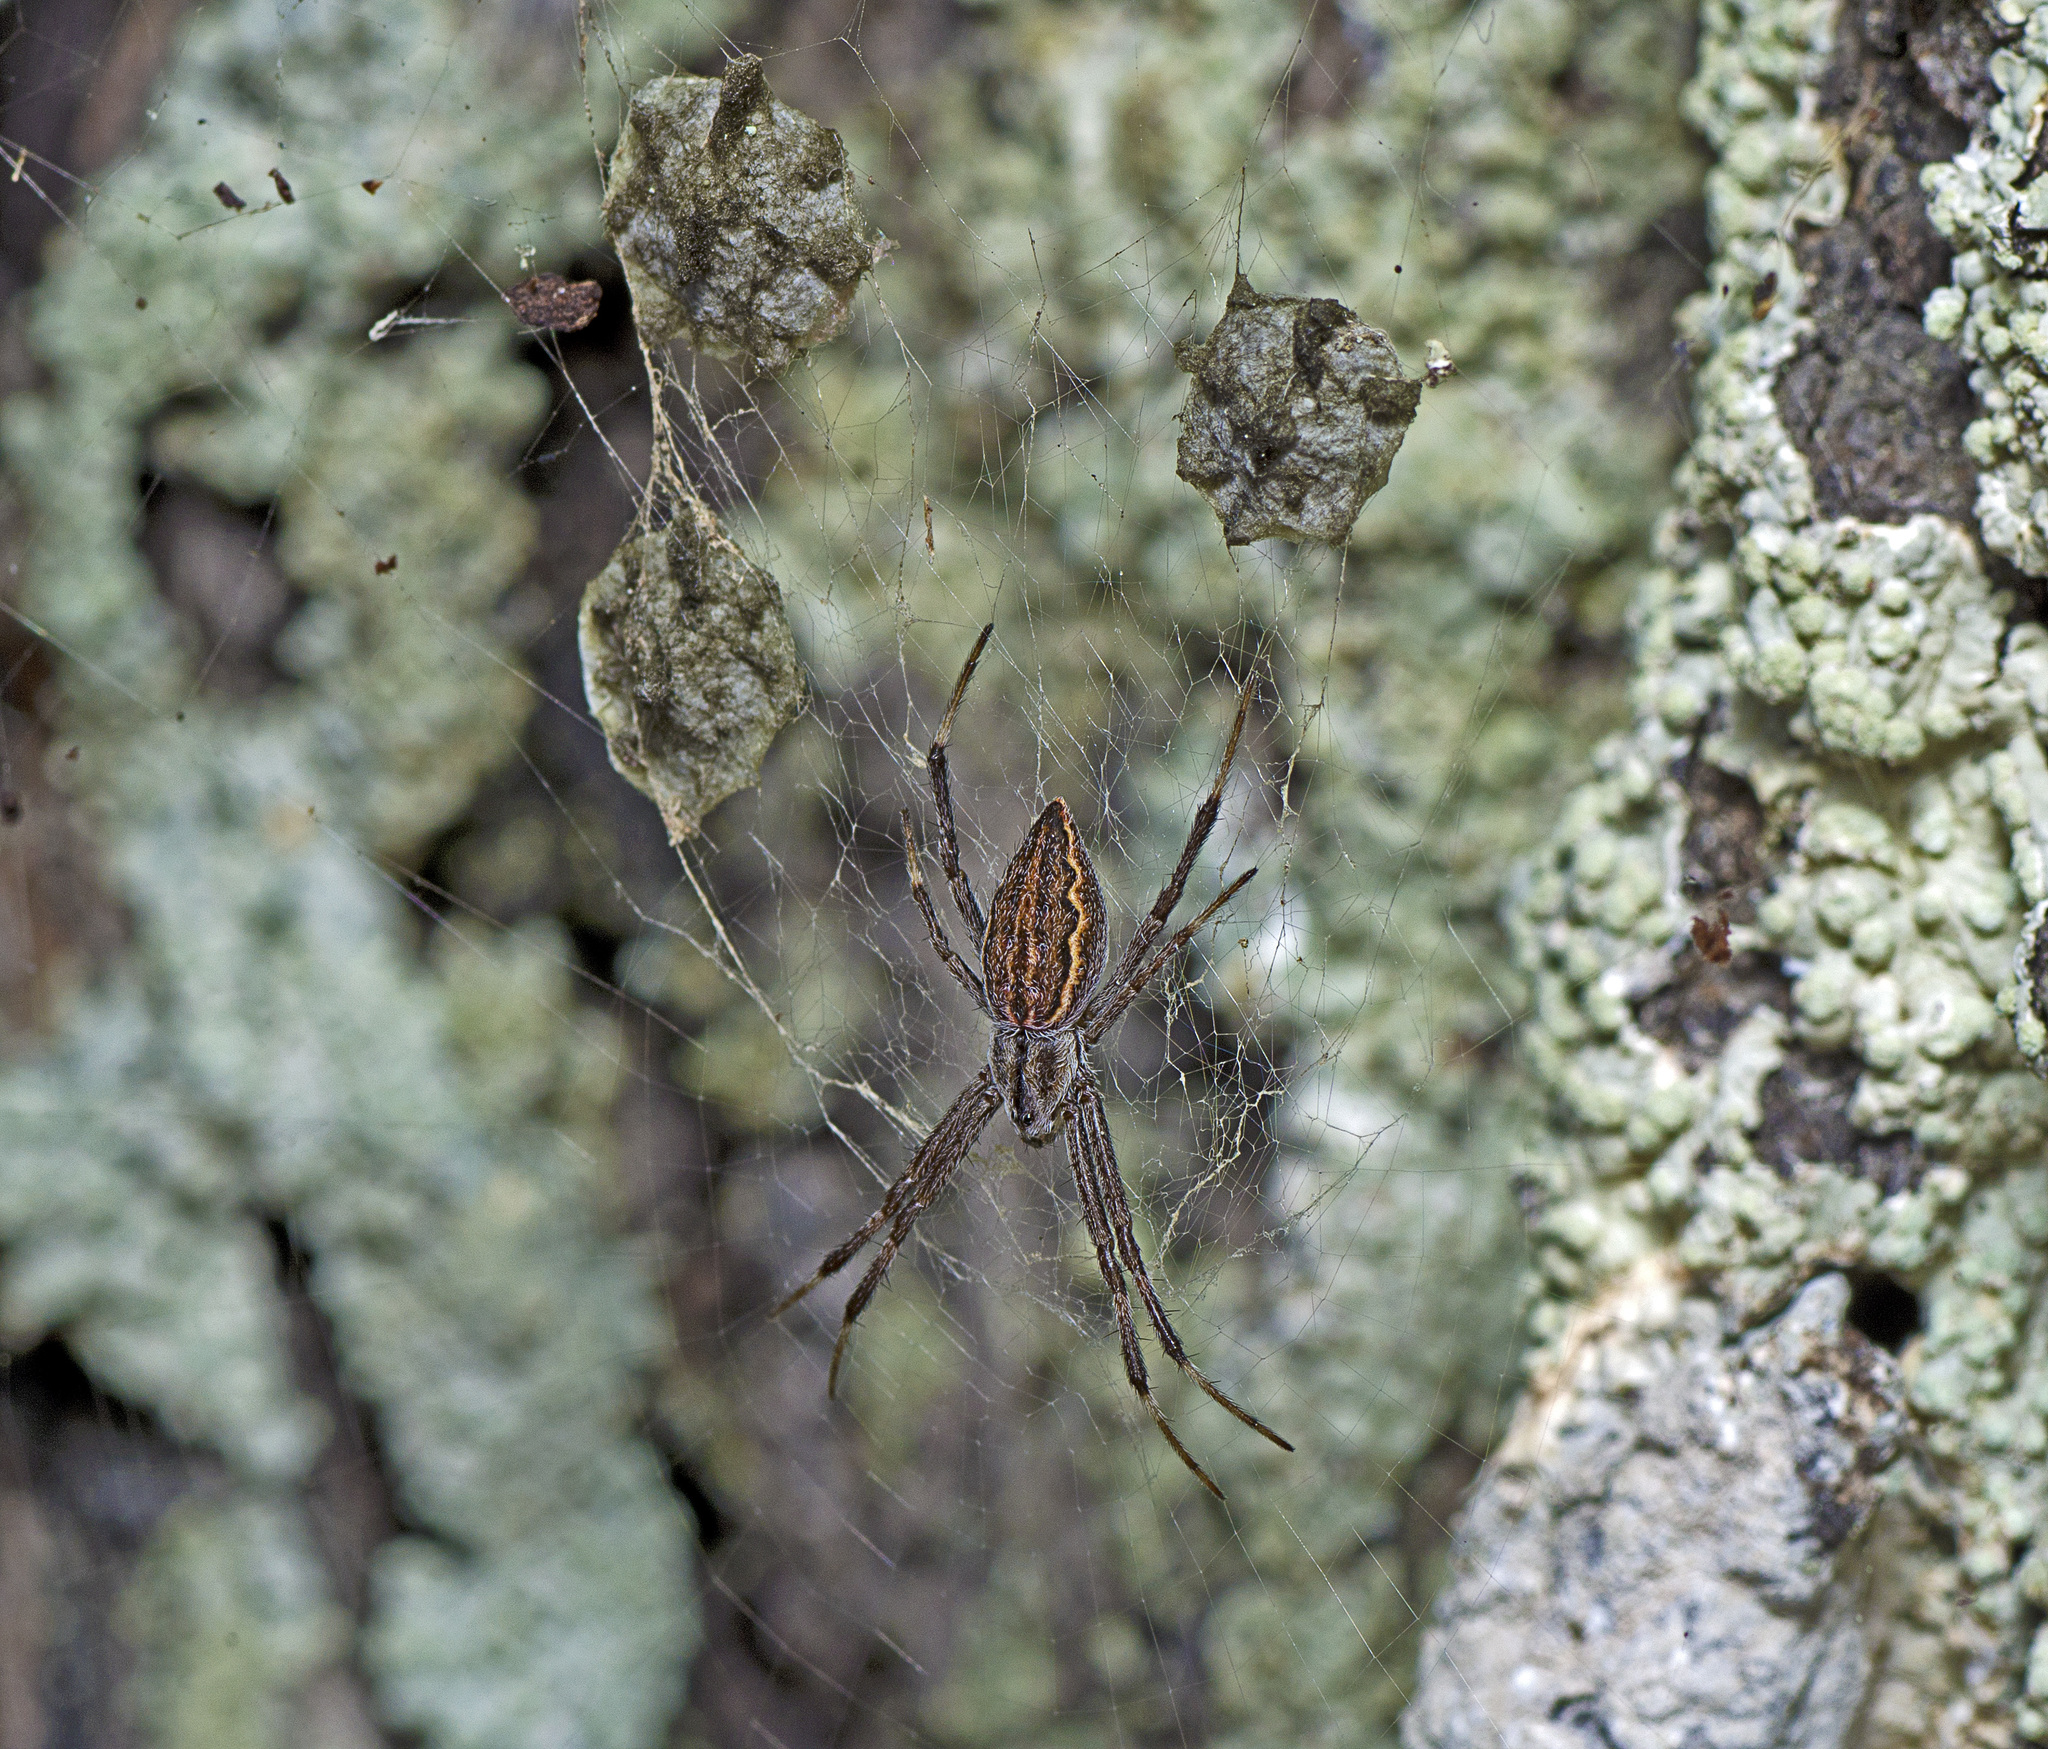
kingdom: Animalia
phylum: Arthropoda
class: Arachnida
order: Araneae
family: Araneidae
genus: Argiope
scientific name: Argiope ocyaloides
